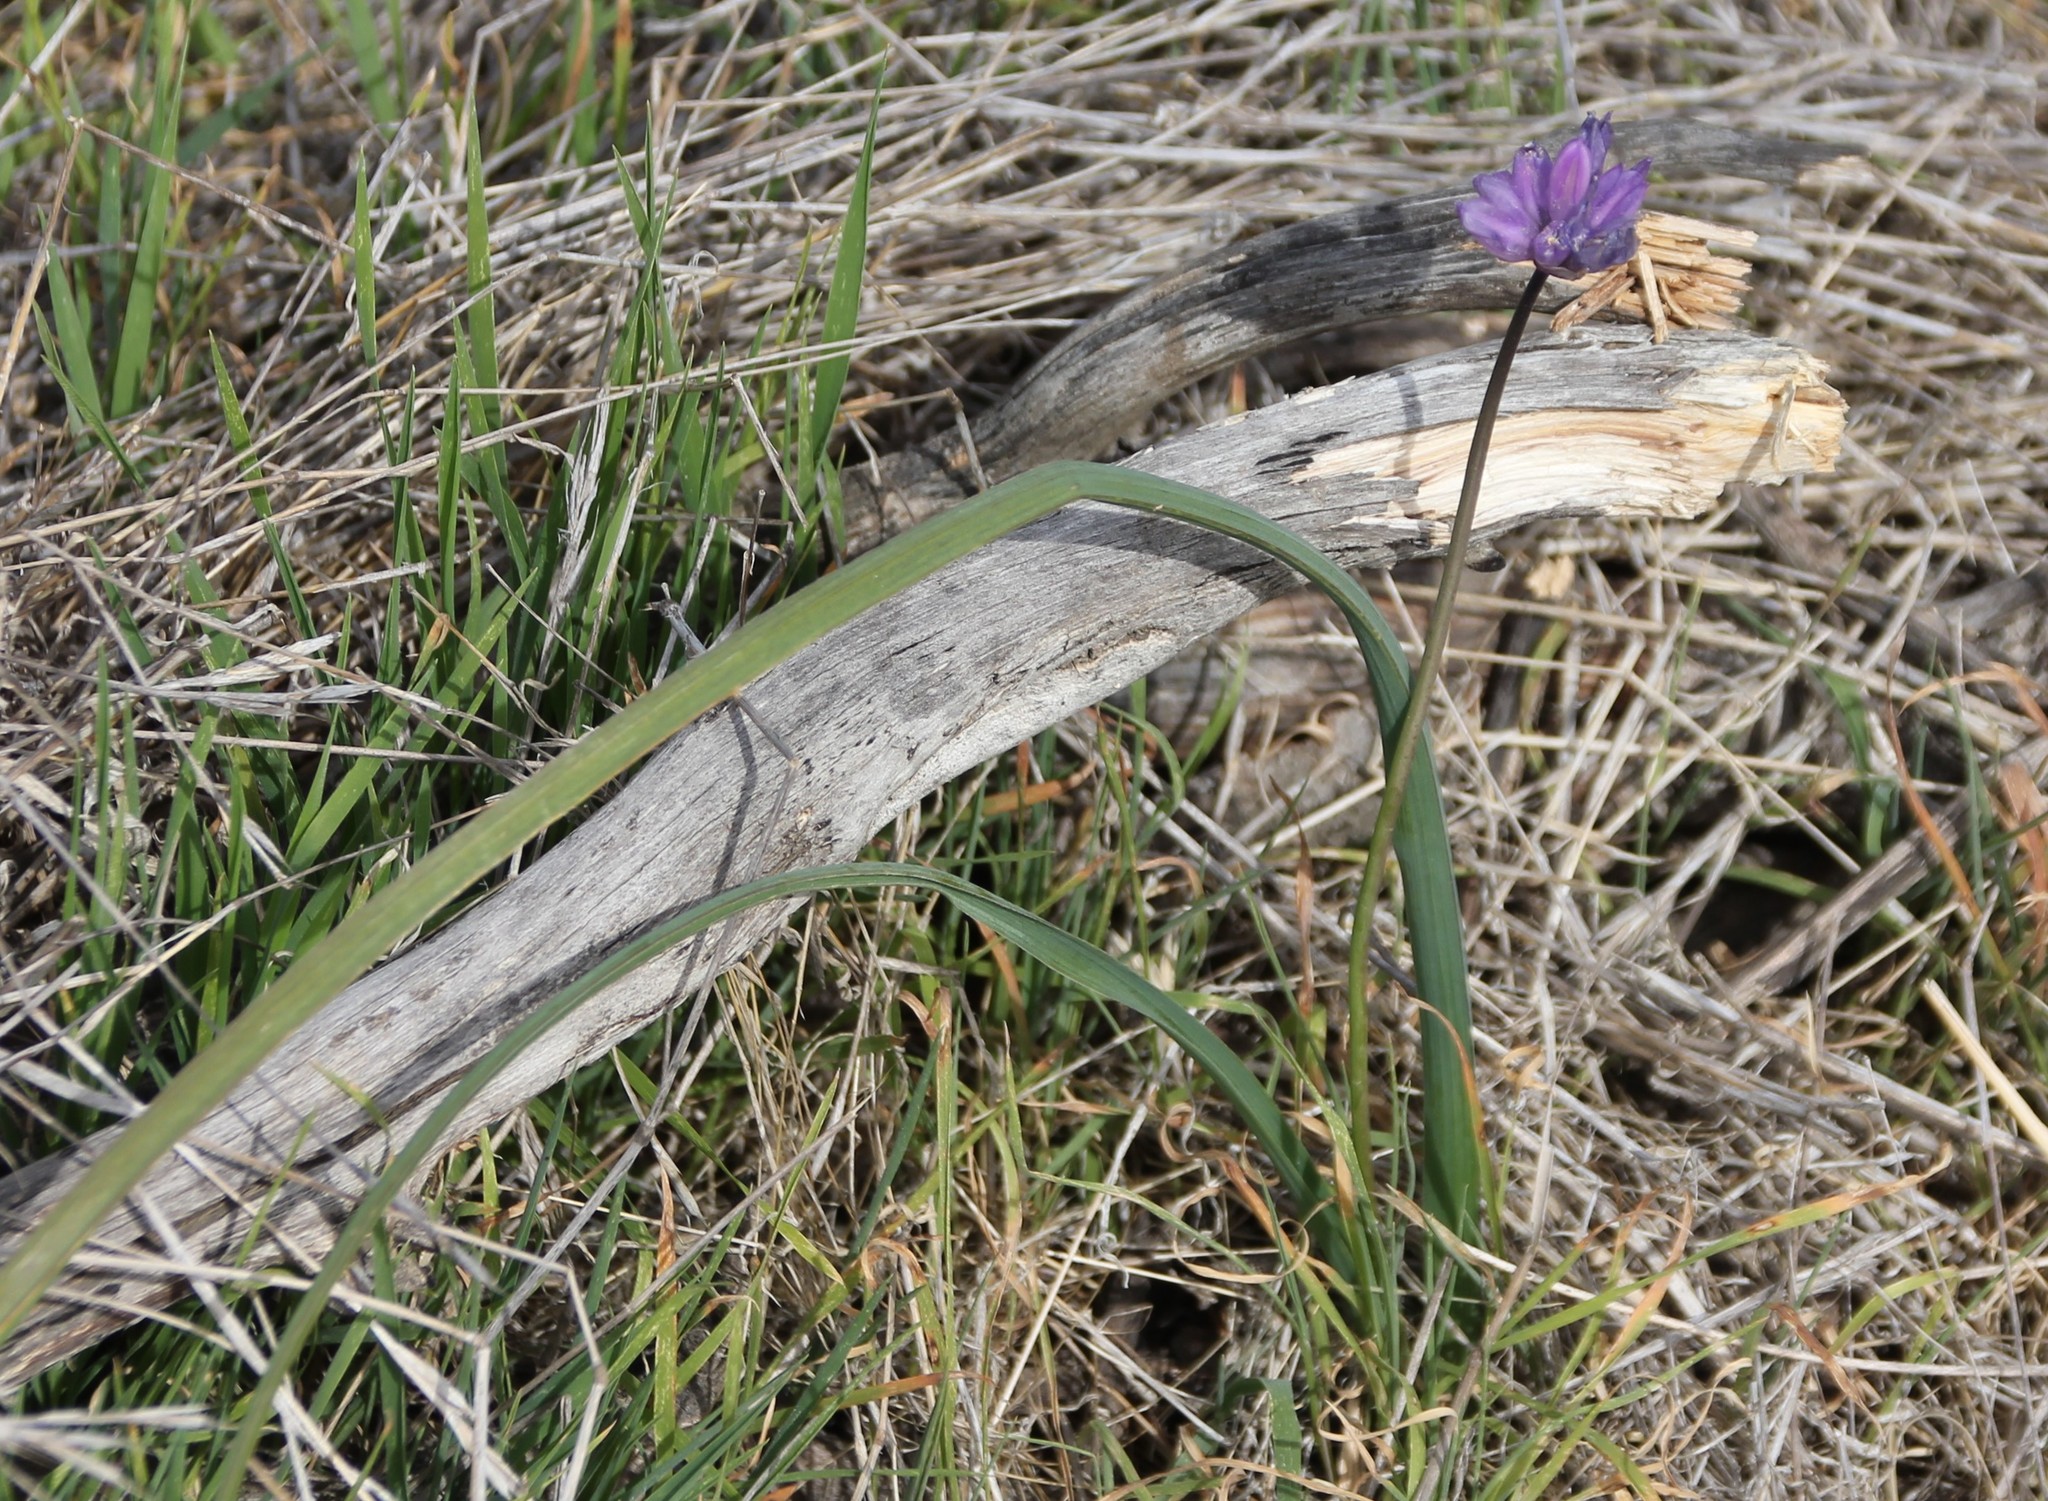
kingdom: Plantae
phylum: Tracheophyta
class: Liliopsida
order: Asparagales
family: Asparagaceae
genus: Dipterostemon
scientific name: Dipterostemon capitatus
